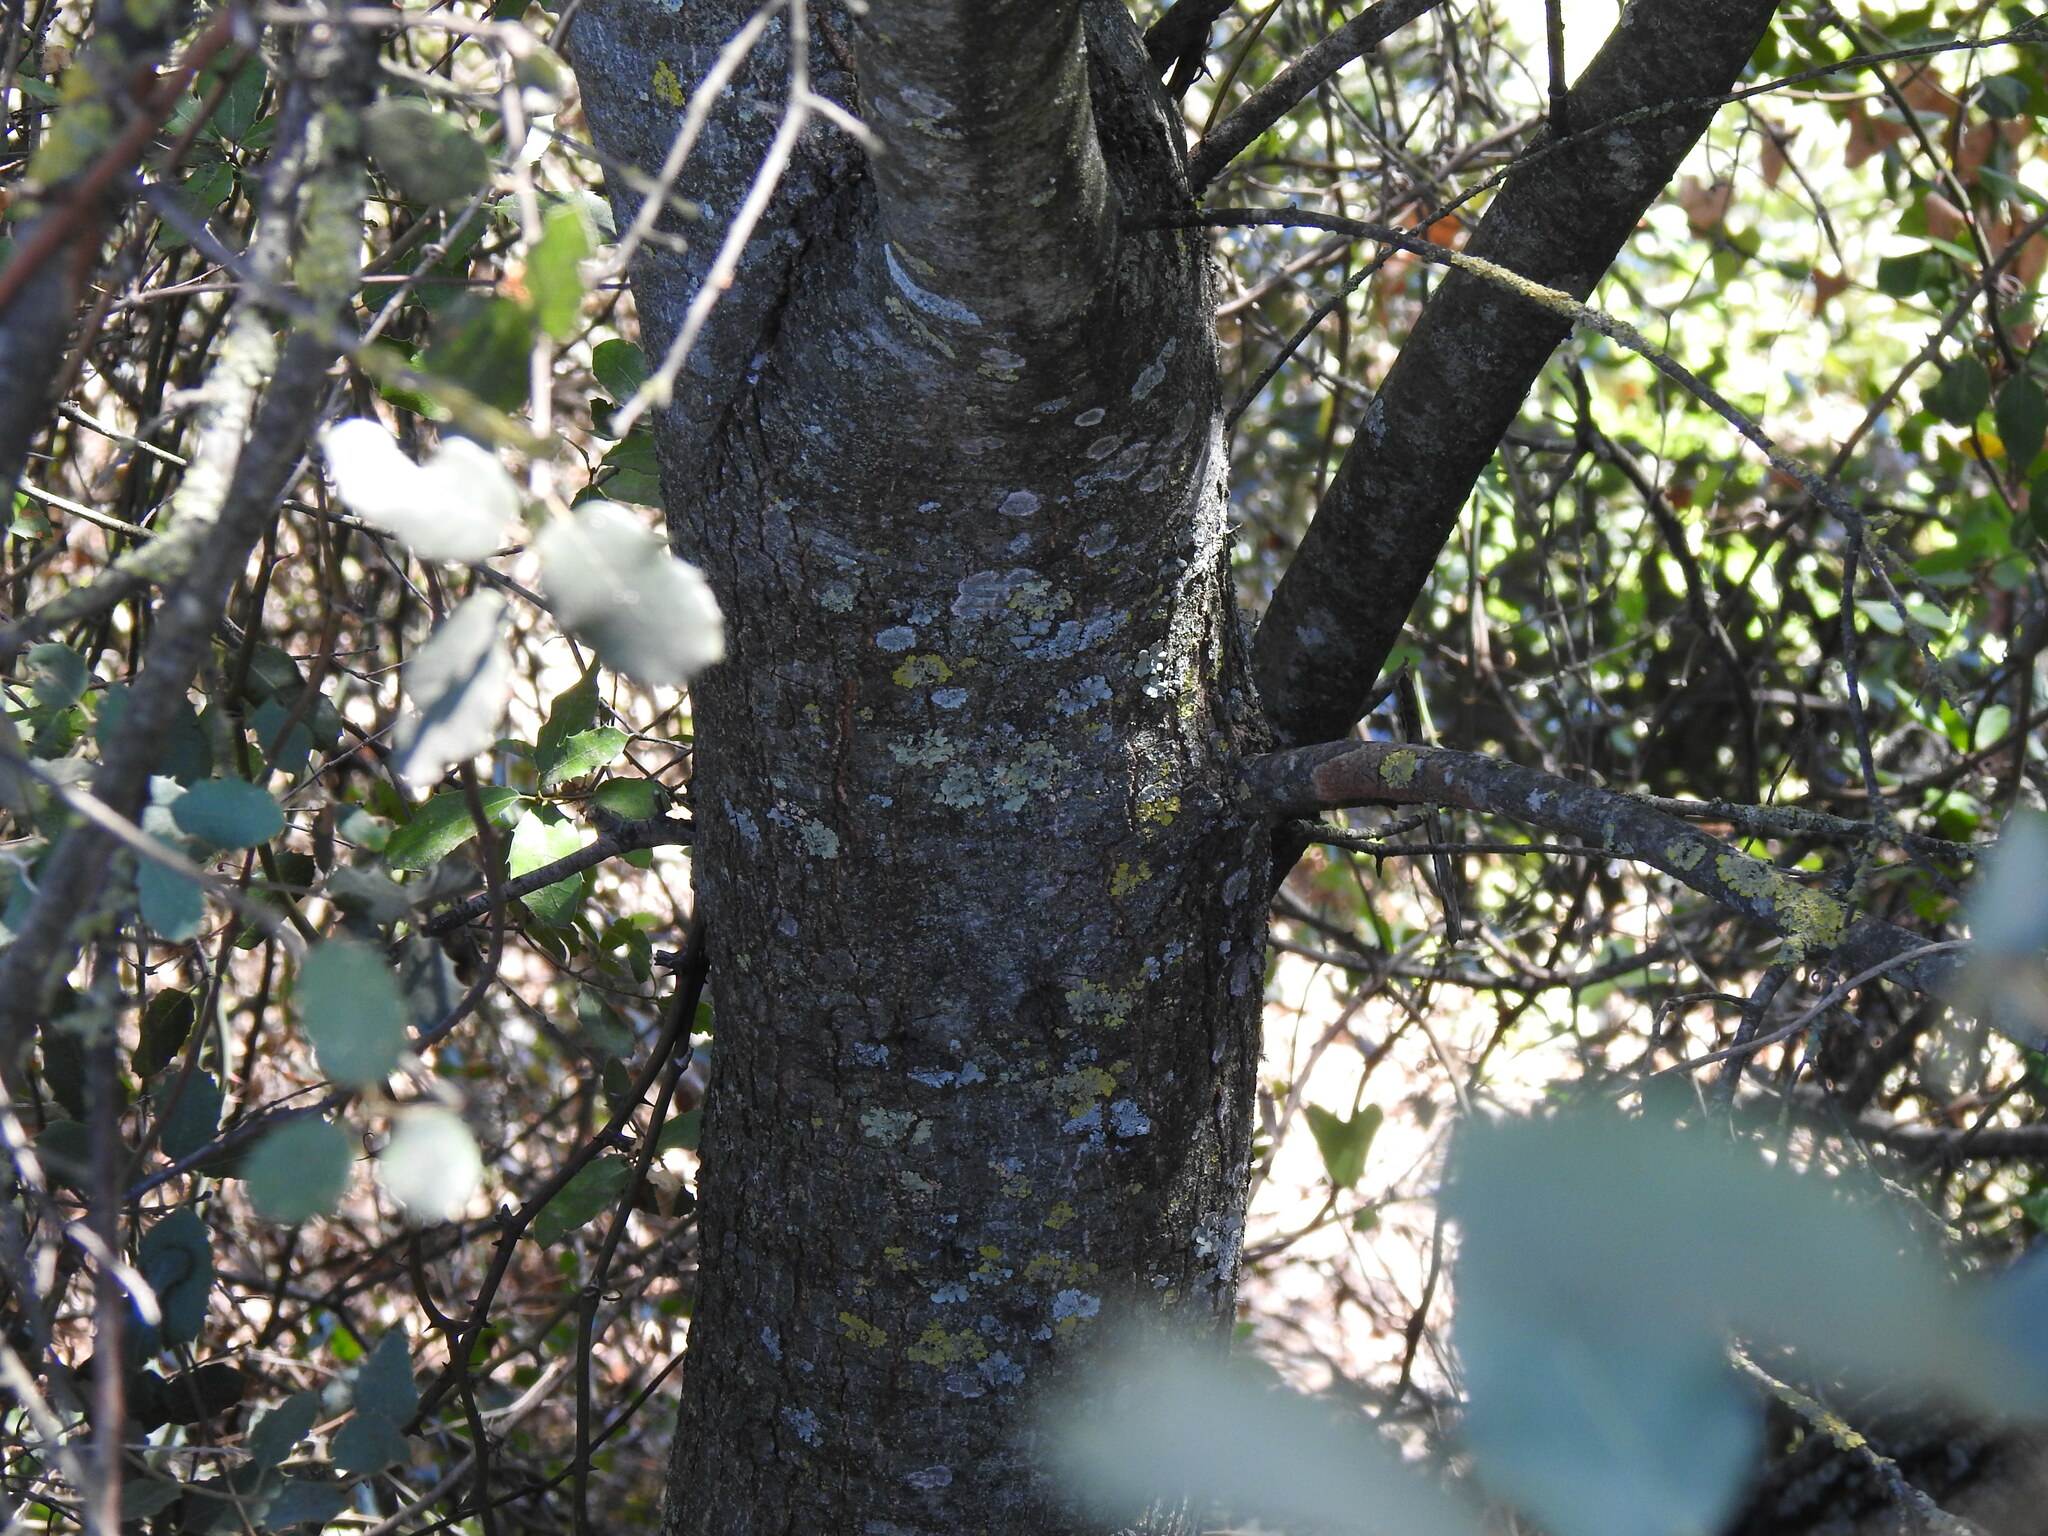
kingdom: Plantae
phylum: Tracheophyta
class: Magnoliopsida
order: Fagales
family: Fagaceae
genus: Quercus
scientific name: Quercus rotundifolia
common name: Holm oak
